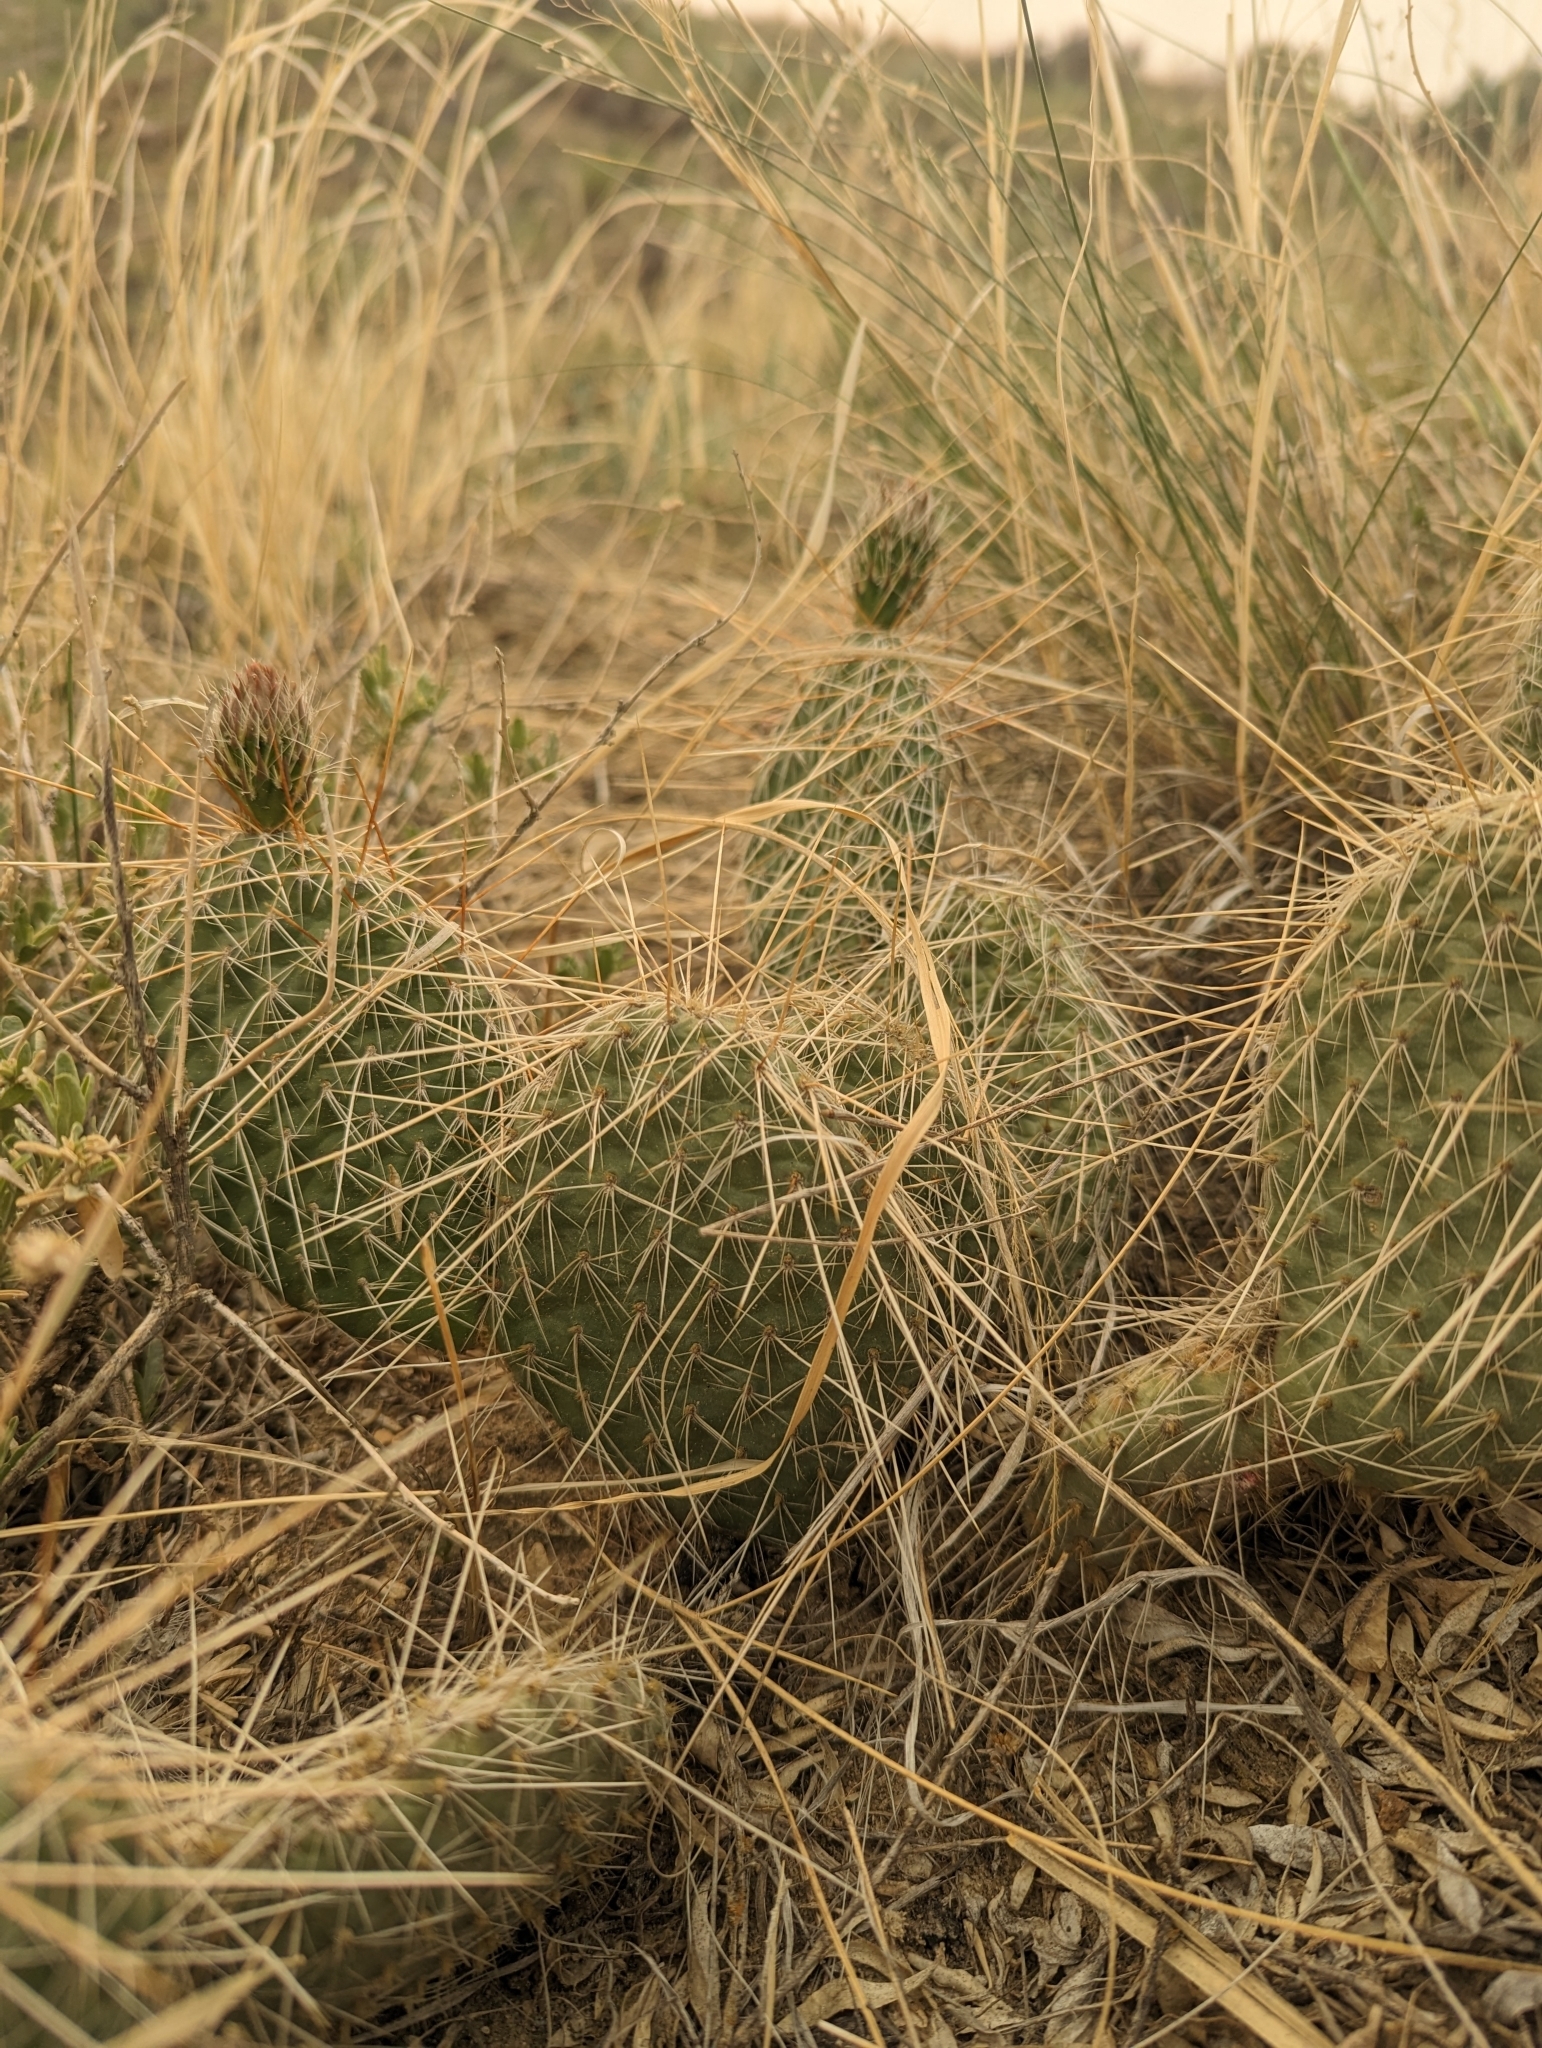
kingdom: Plantae
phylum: Tracheophyta
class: Magnoliopsida
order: Caryophyllales
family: Cactaceae
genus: Opuntia
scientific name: Opuntia polyacantha
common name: Plains prickly-pear
